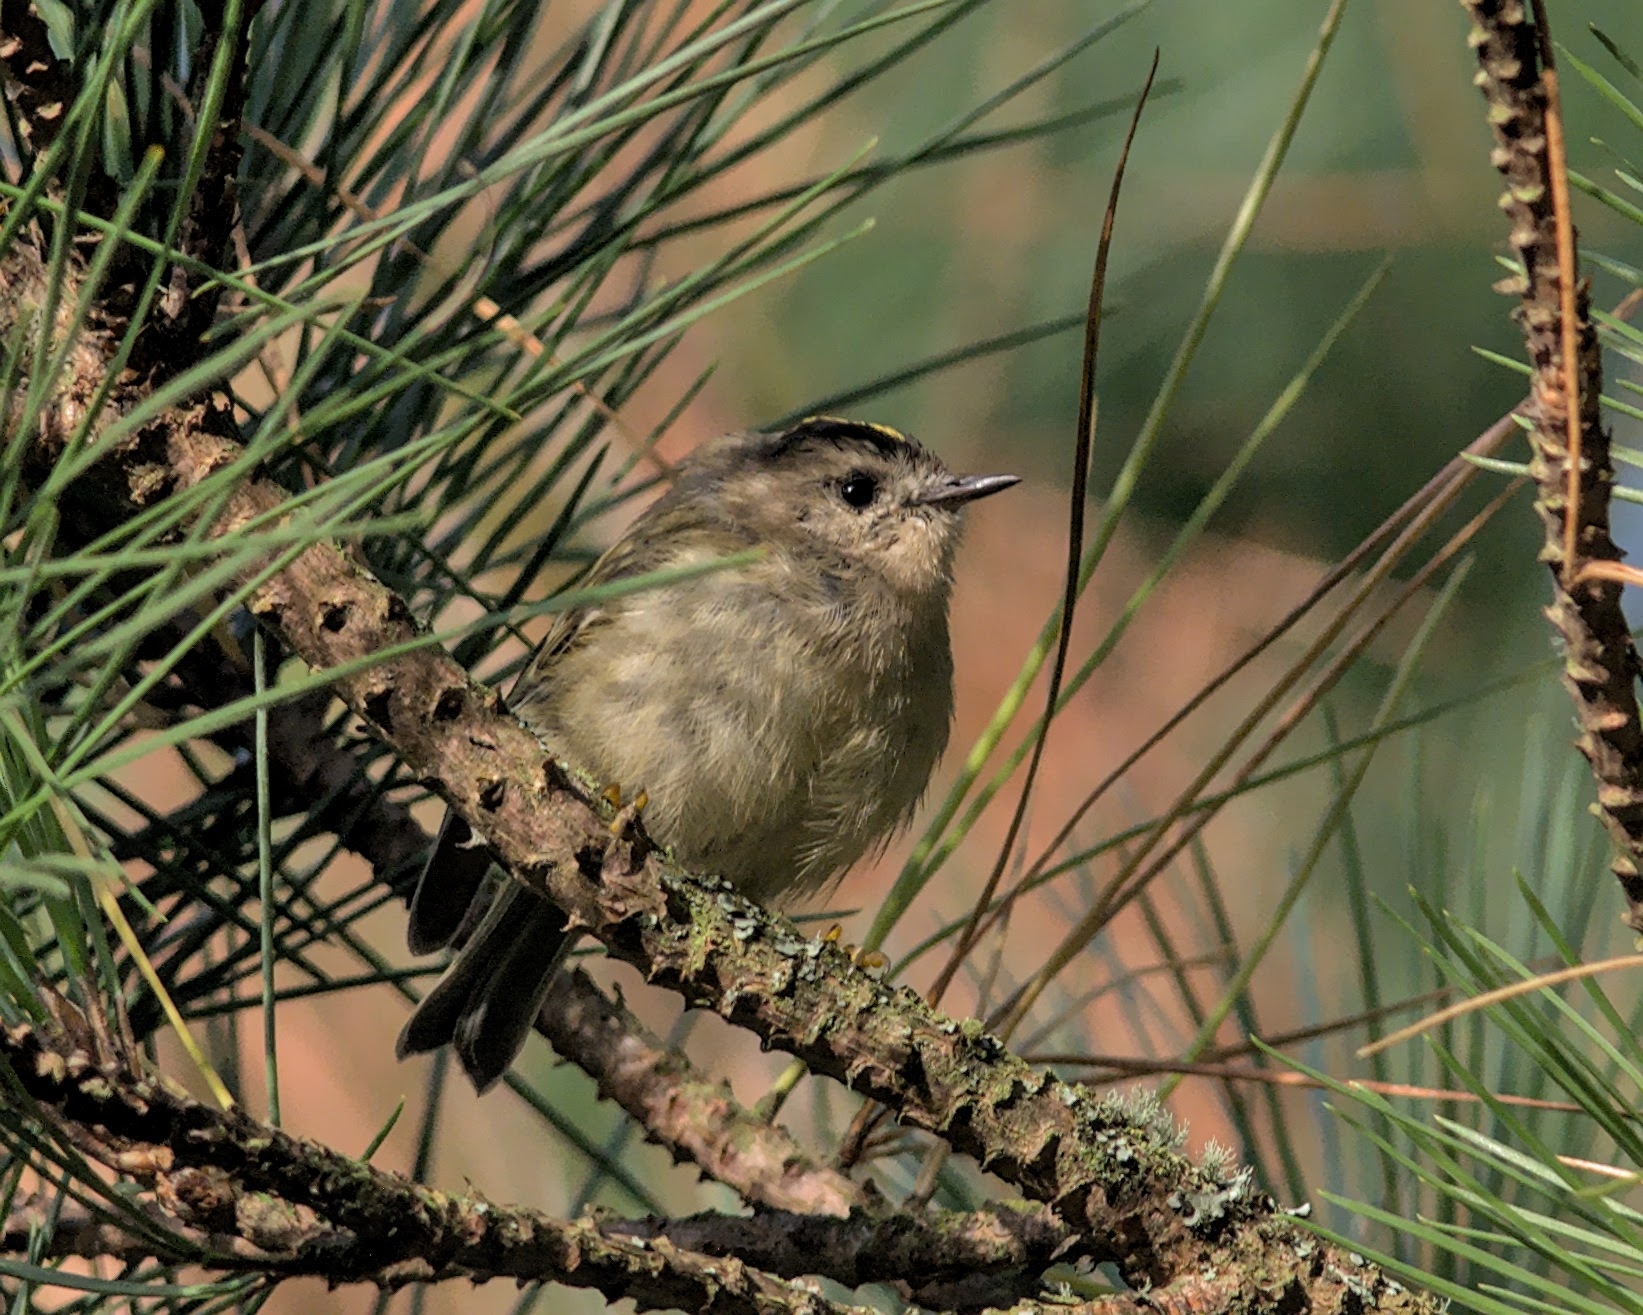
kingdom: Animalia
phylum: Chordata
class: Aves
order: Passeriformes
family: Regulidae
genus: Regulus
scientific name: Regulus regulus
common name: Goldcrest
